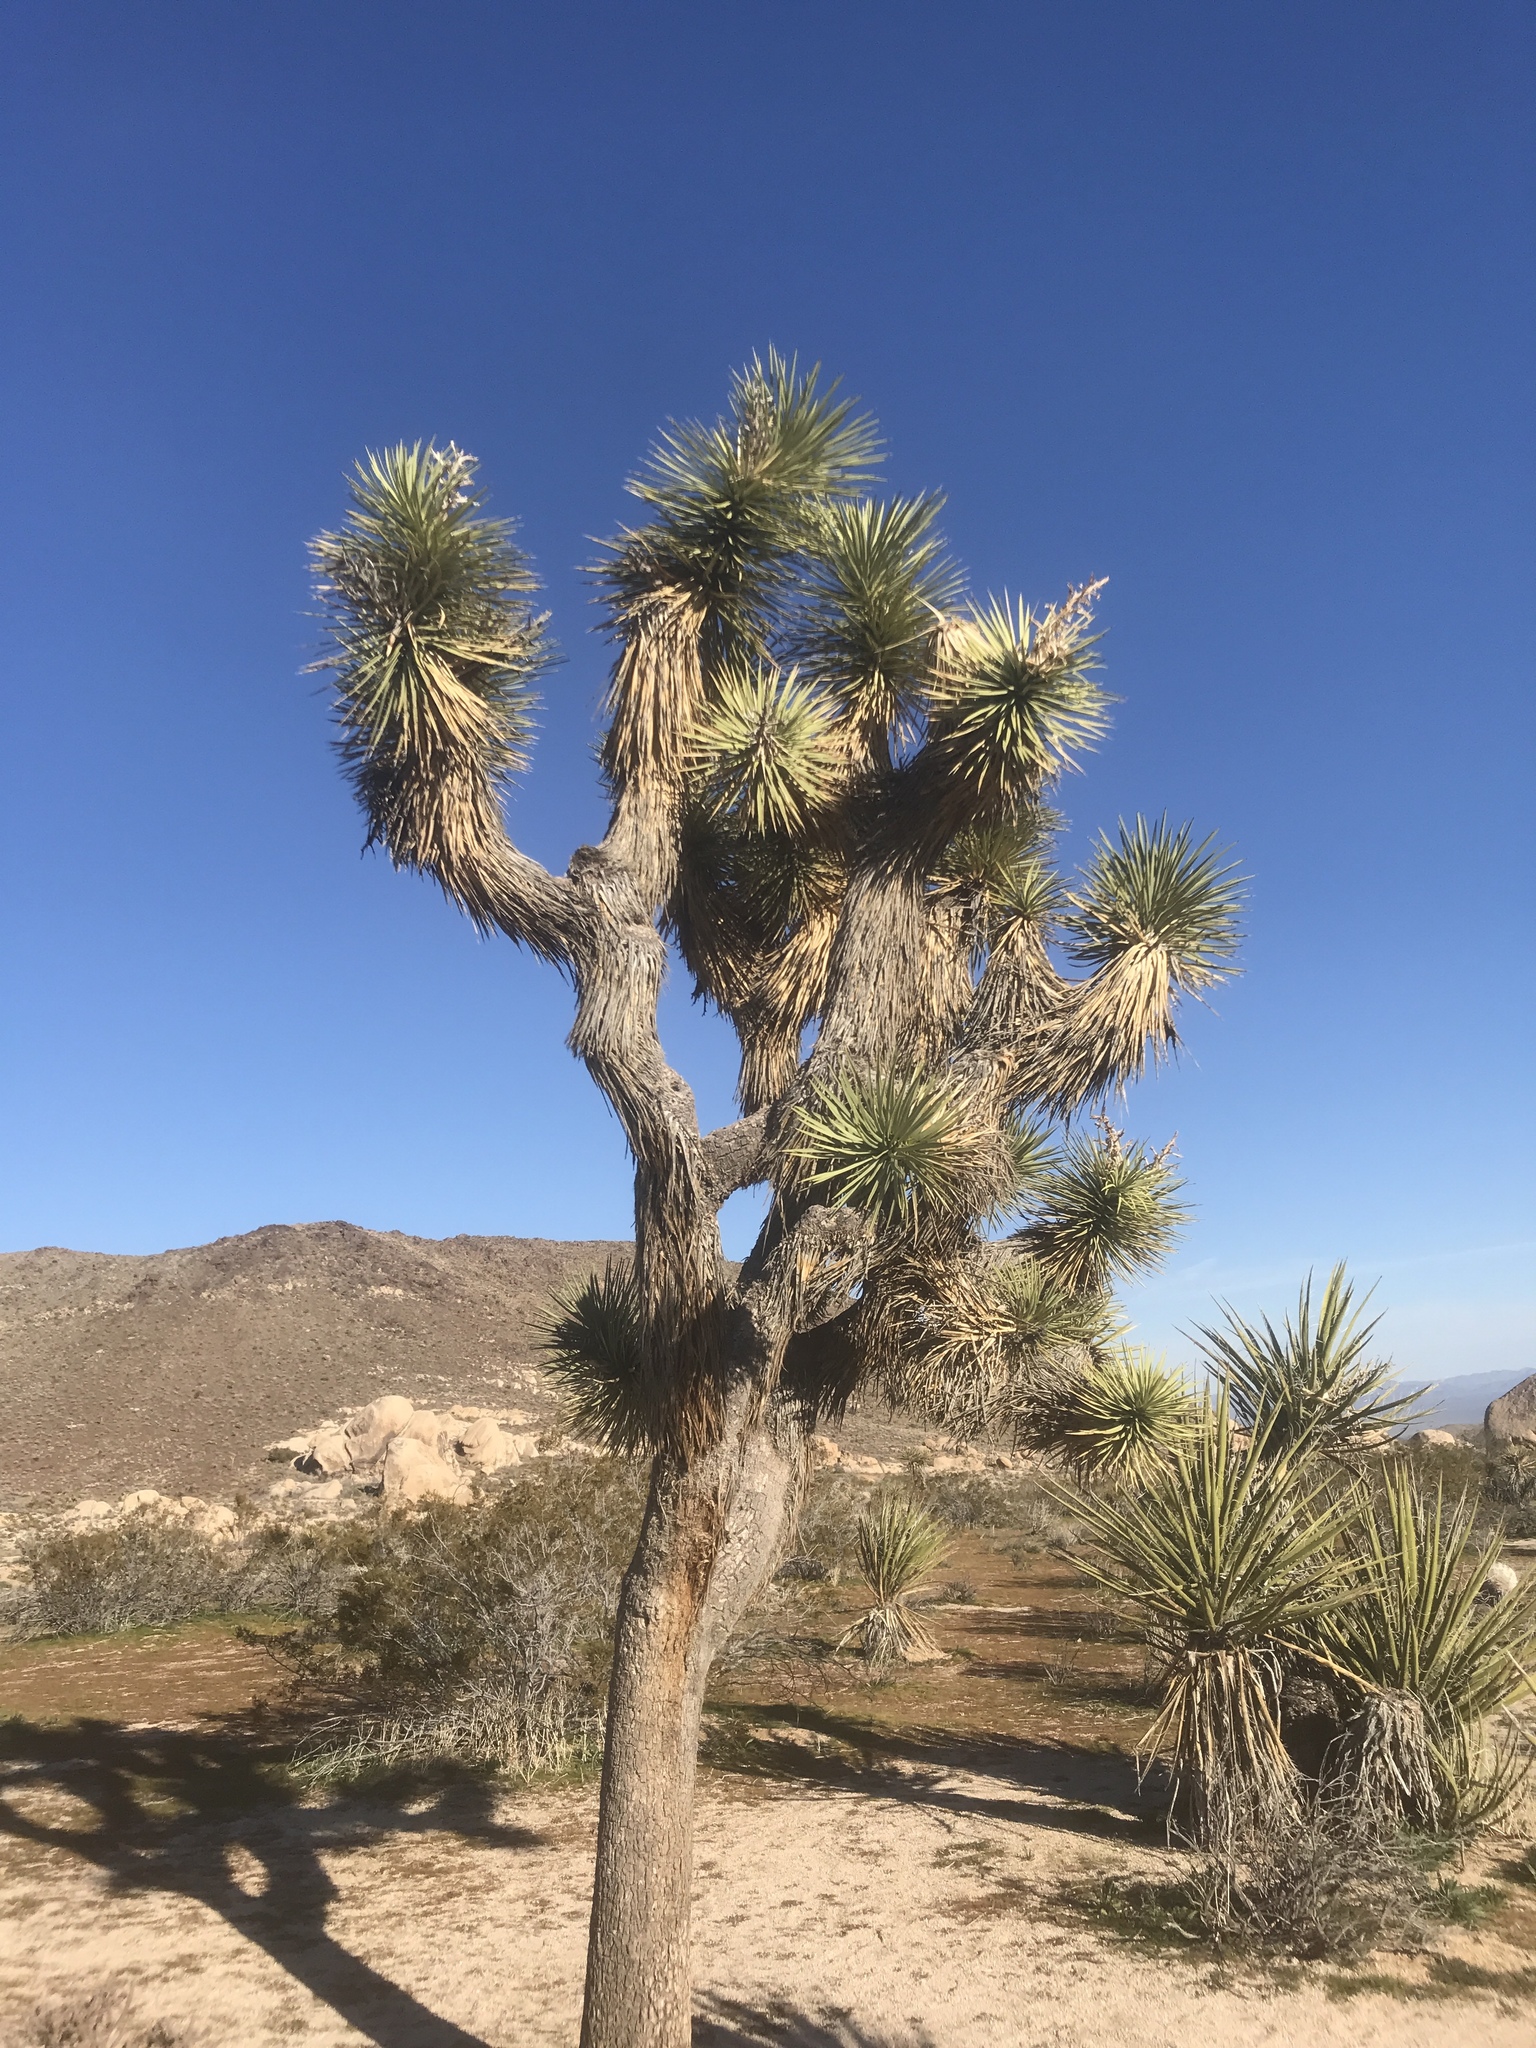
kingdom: Plantae
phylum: Tracheophyta
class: Liliopsida
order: Asparagales
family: Asparagaceae
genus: Yucca
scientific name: Yucca brevifolia
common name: Joshua tree
